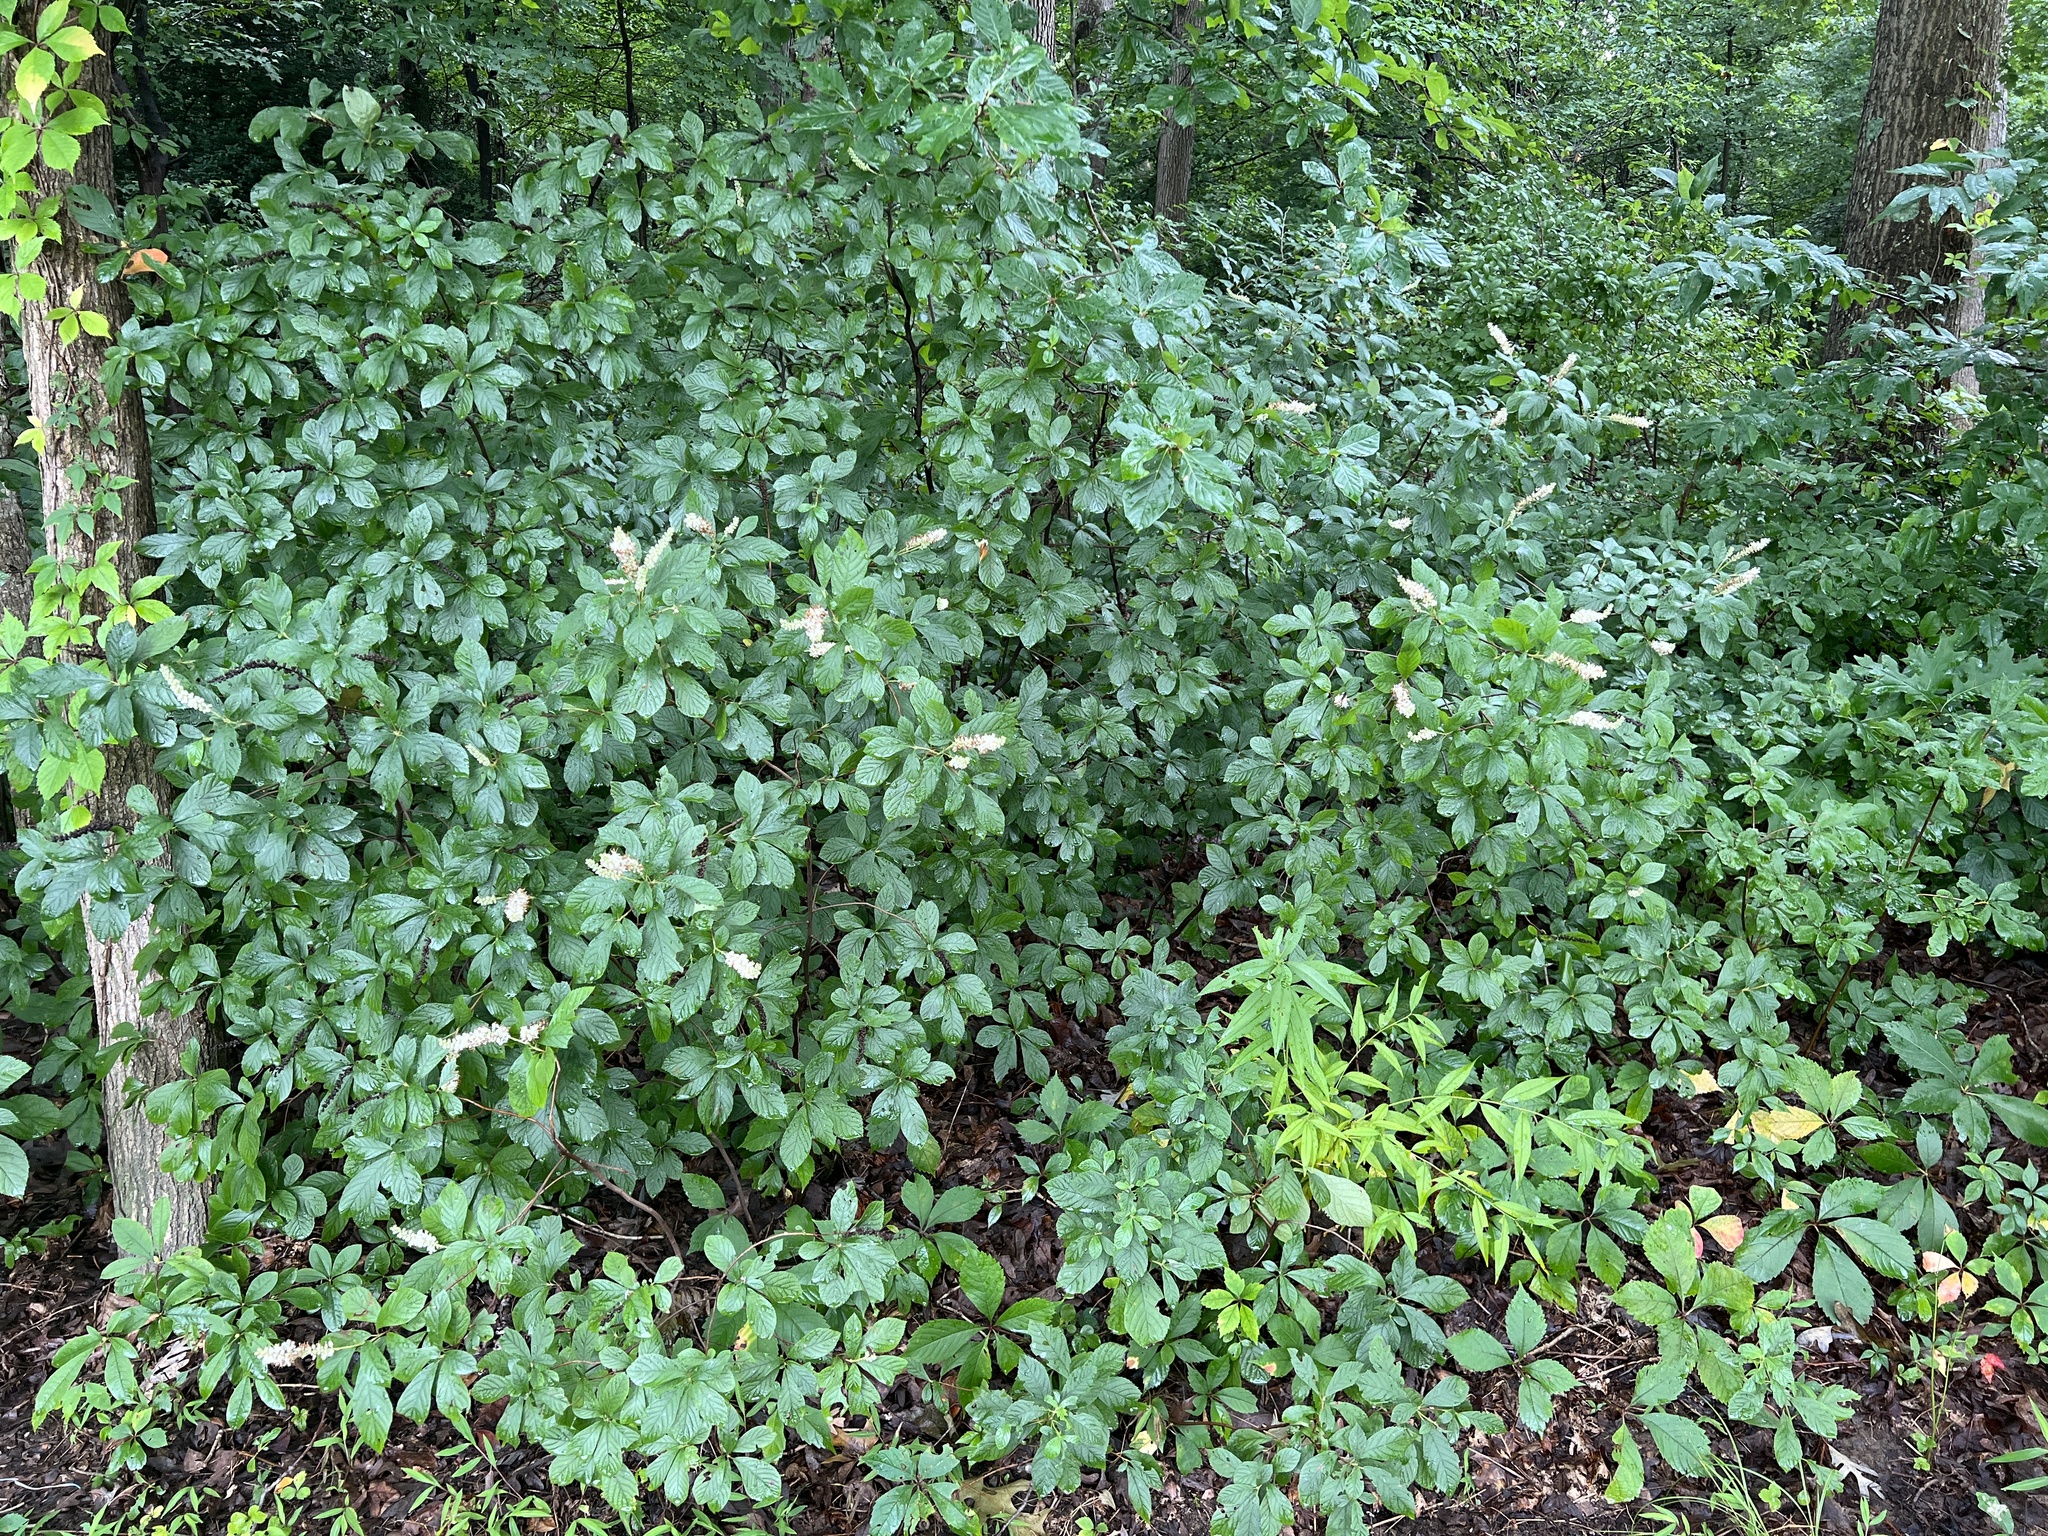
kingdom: Plantae
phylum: Tracheophyta
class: Magnoliopsida
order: Ericales
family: Clethraceae
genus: Clethra
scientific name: Clethra alnifolia
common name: Sweet pepperbush
